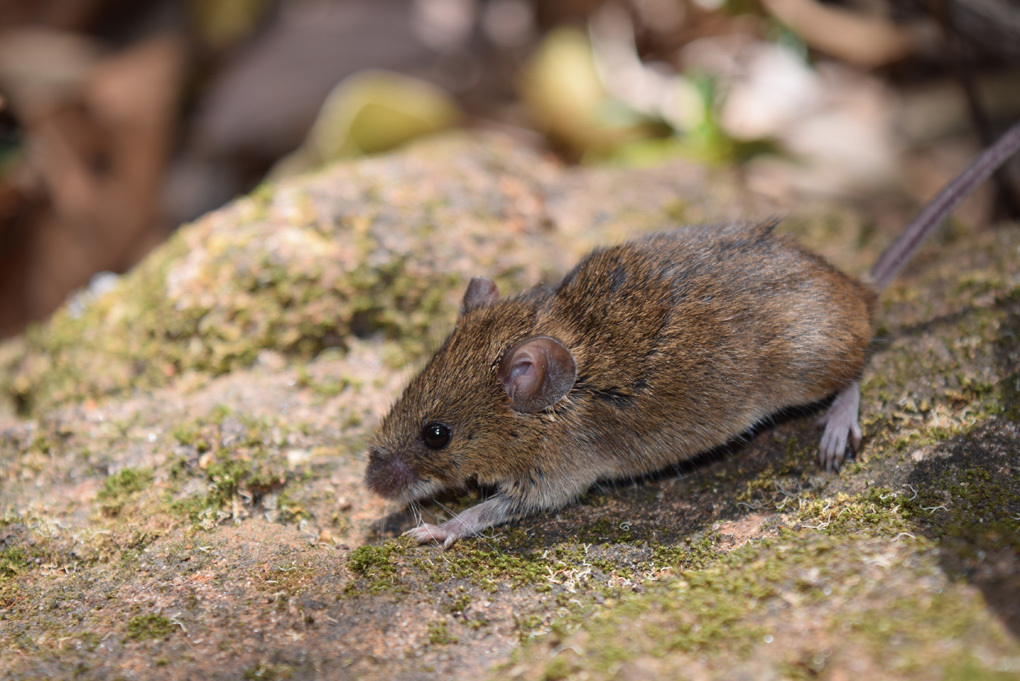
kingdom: Animalia
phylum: Chordata
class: Mammalia
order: Rodentia
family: Muridae
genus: Mus
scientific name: Mus booduga
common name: Little indian field mouse
